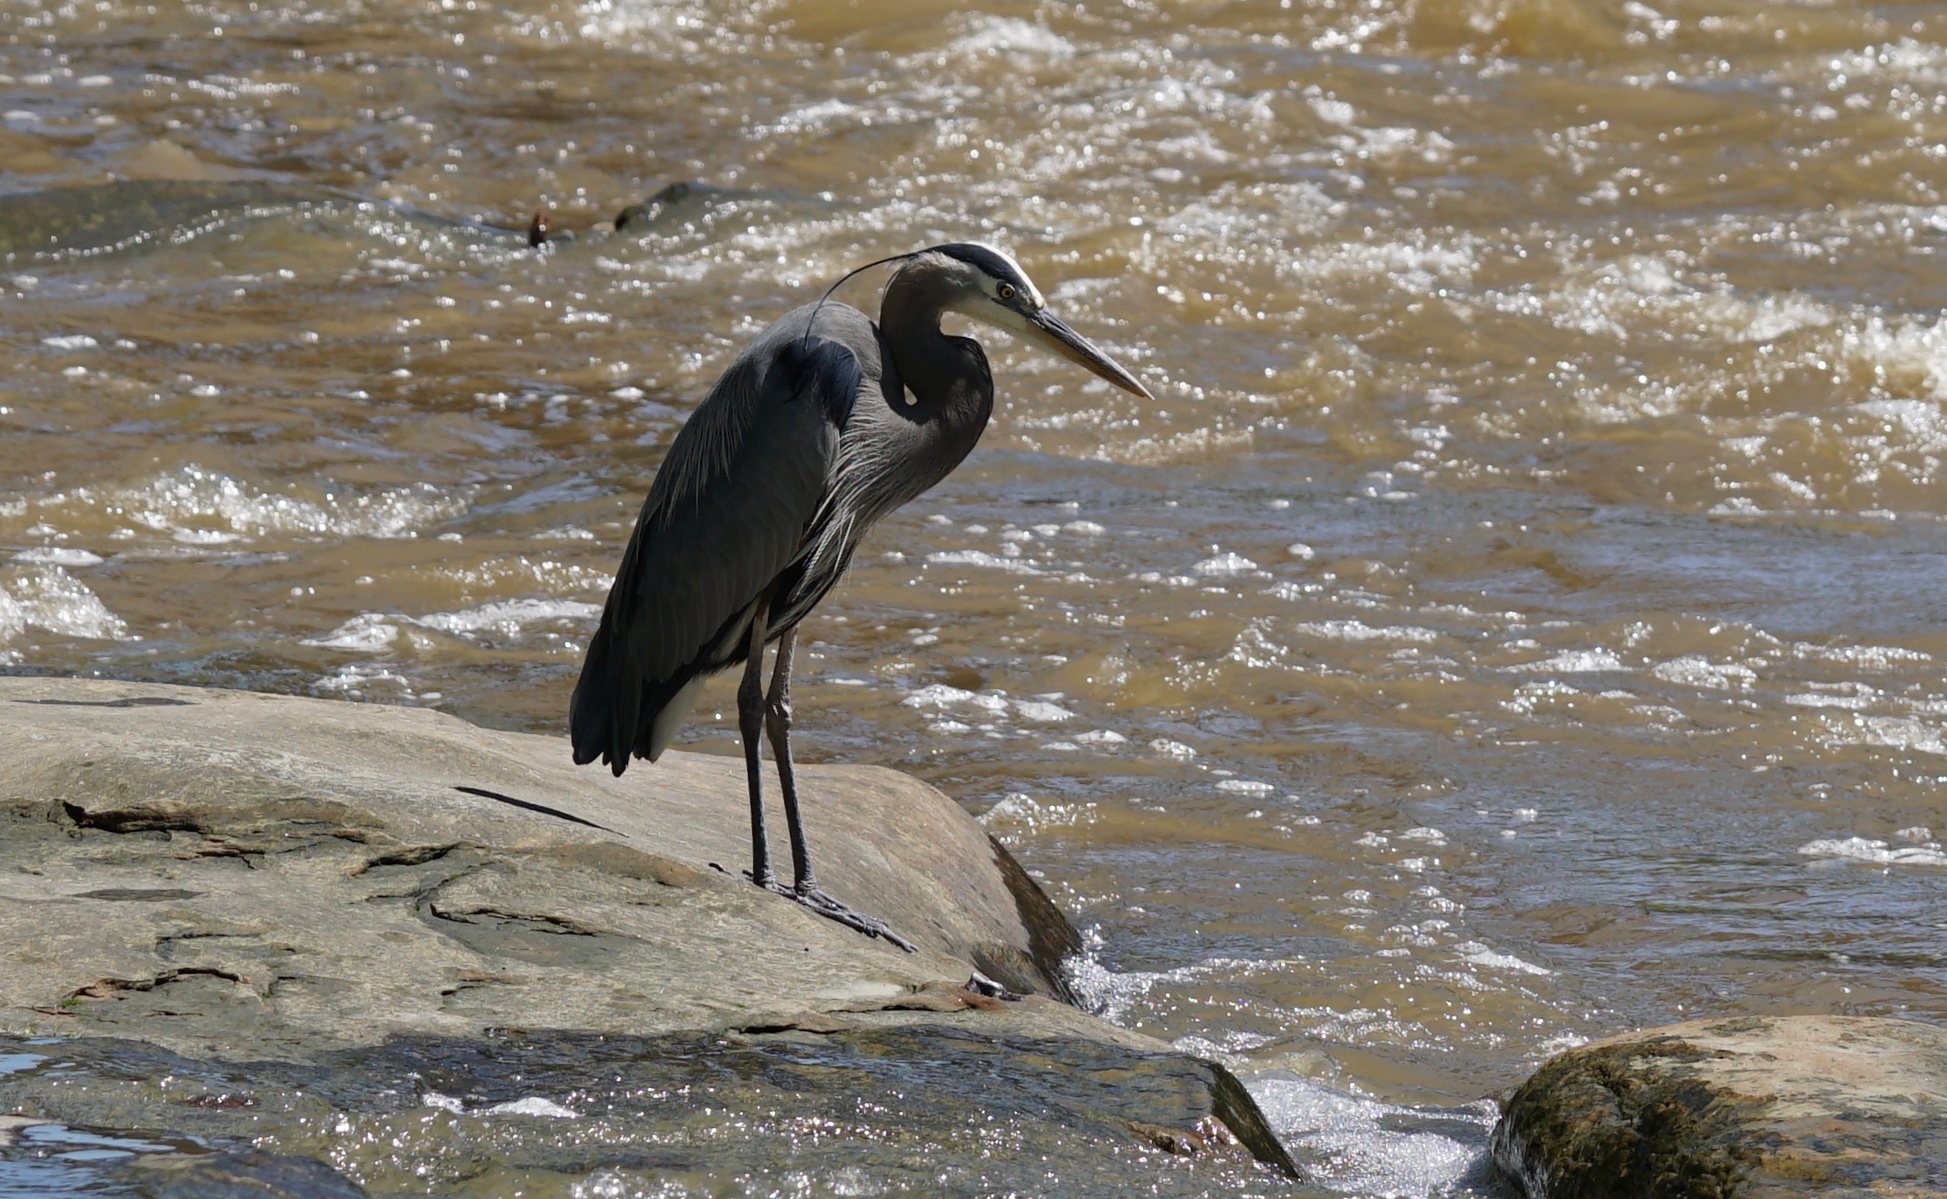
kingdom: Animalia
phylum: Chordata
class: Aves
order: Pelecaniformes
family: Ardeidae
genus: Ardea
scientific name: Ardea herodias
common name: Great blue heron
